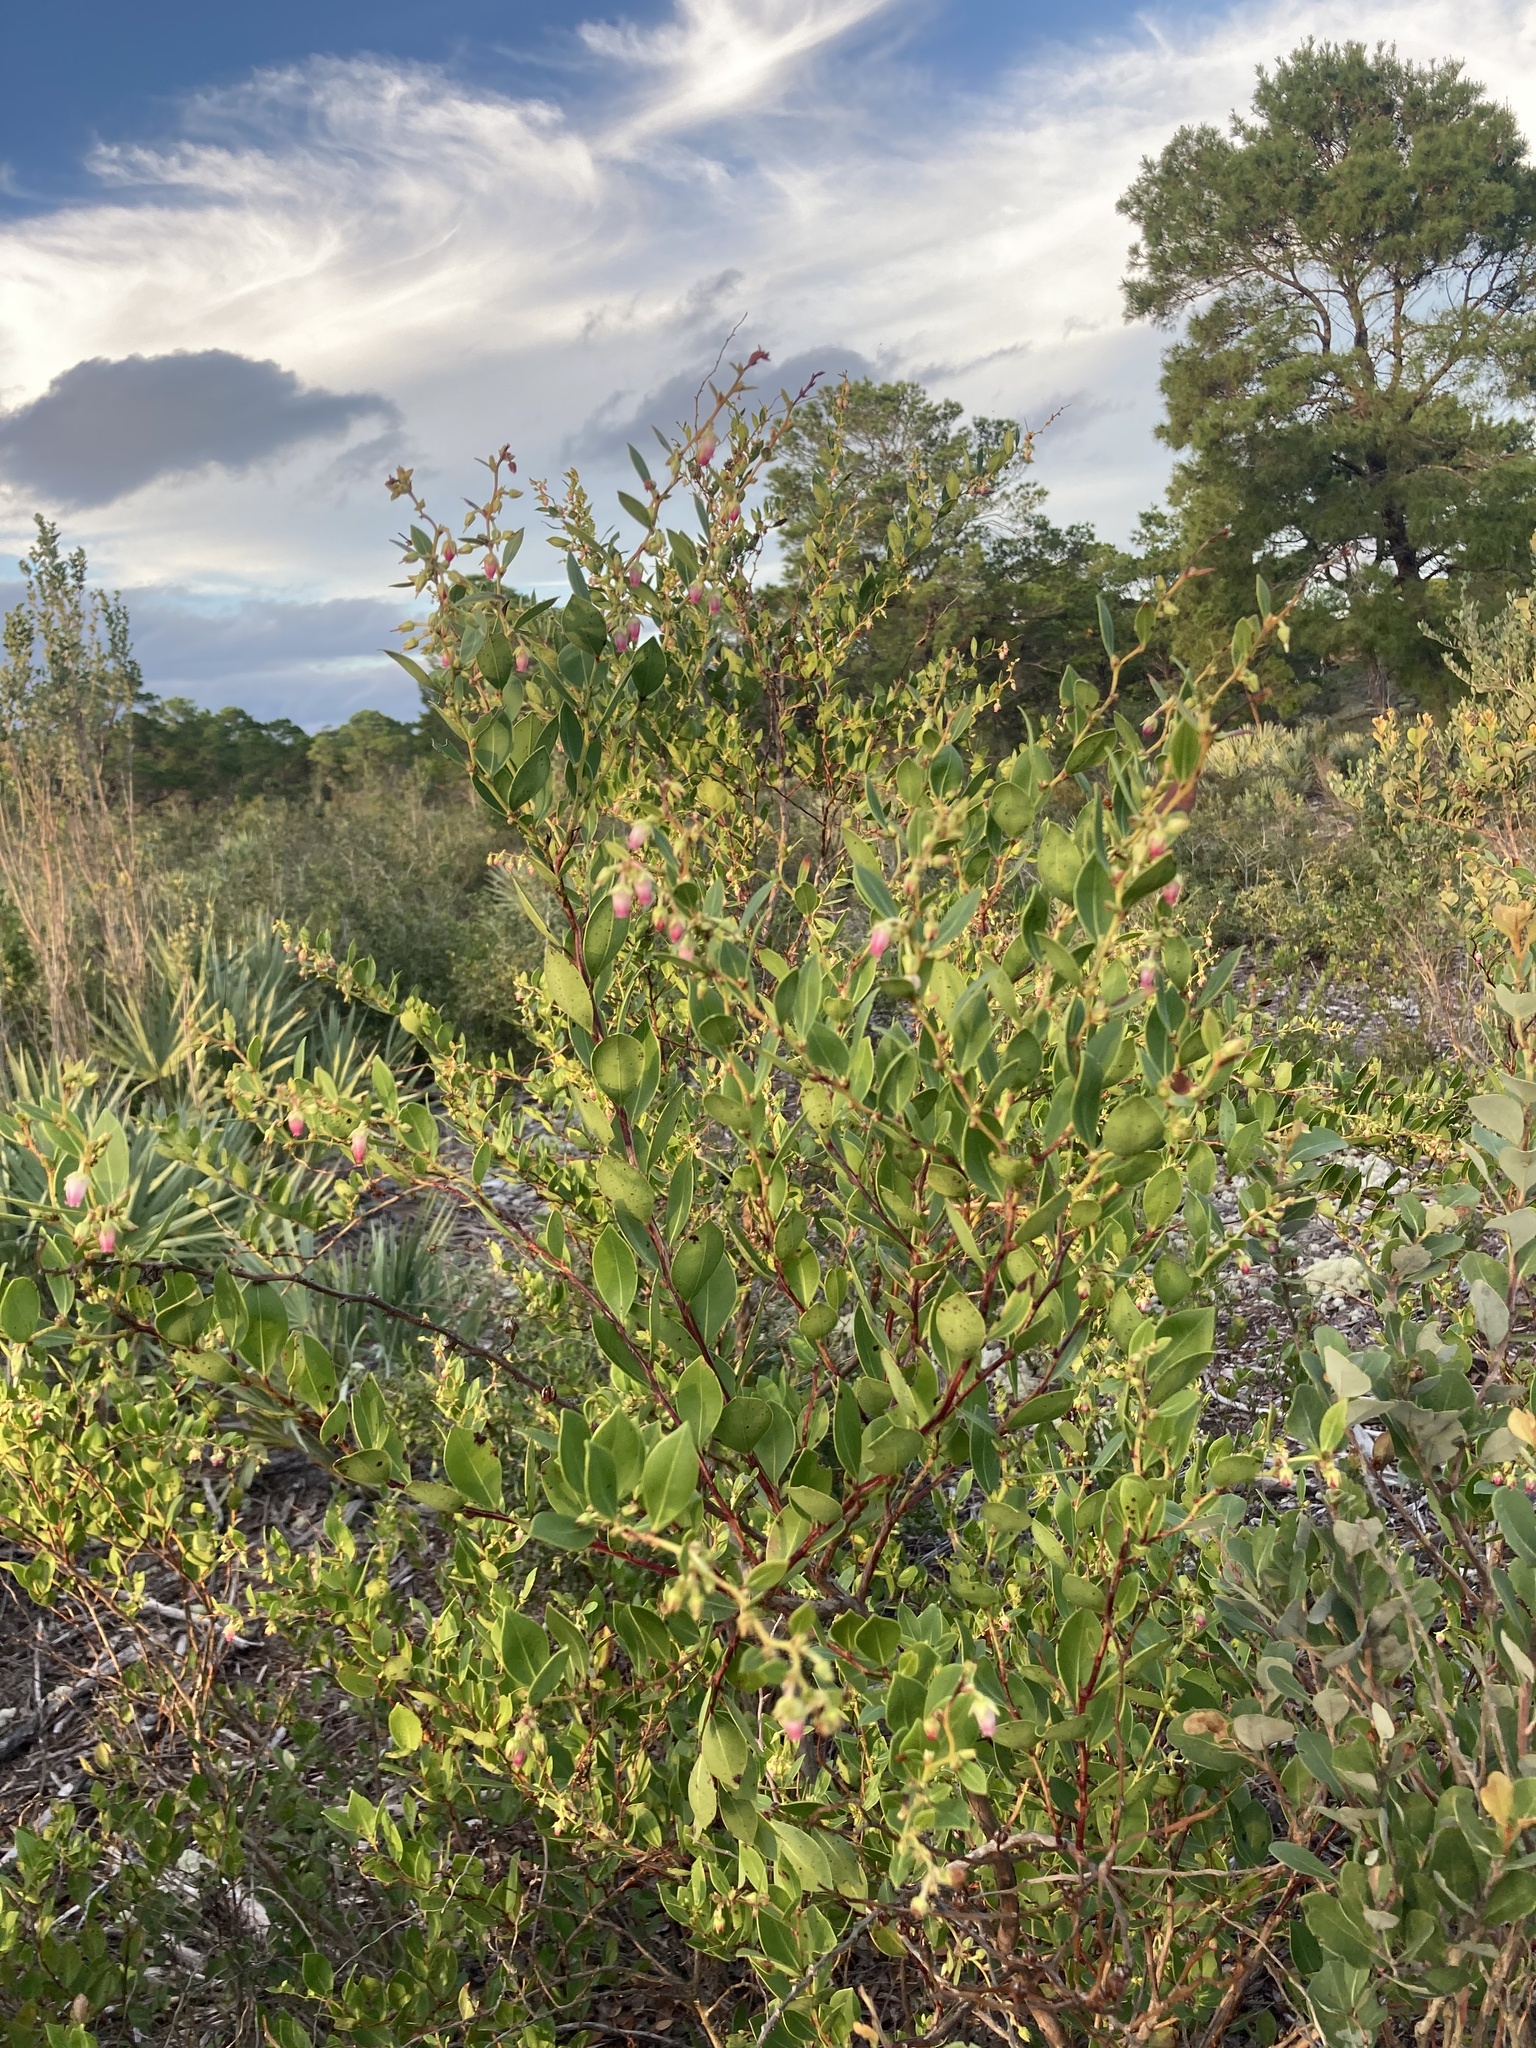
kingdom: Plantae
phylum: Tracheophyta
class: Magnoliopsida
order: Ericales
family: Ericaceae
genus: Lyonia
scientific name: Lyonia lucida
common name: Fetterbush
